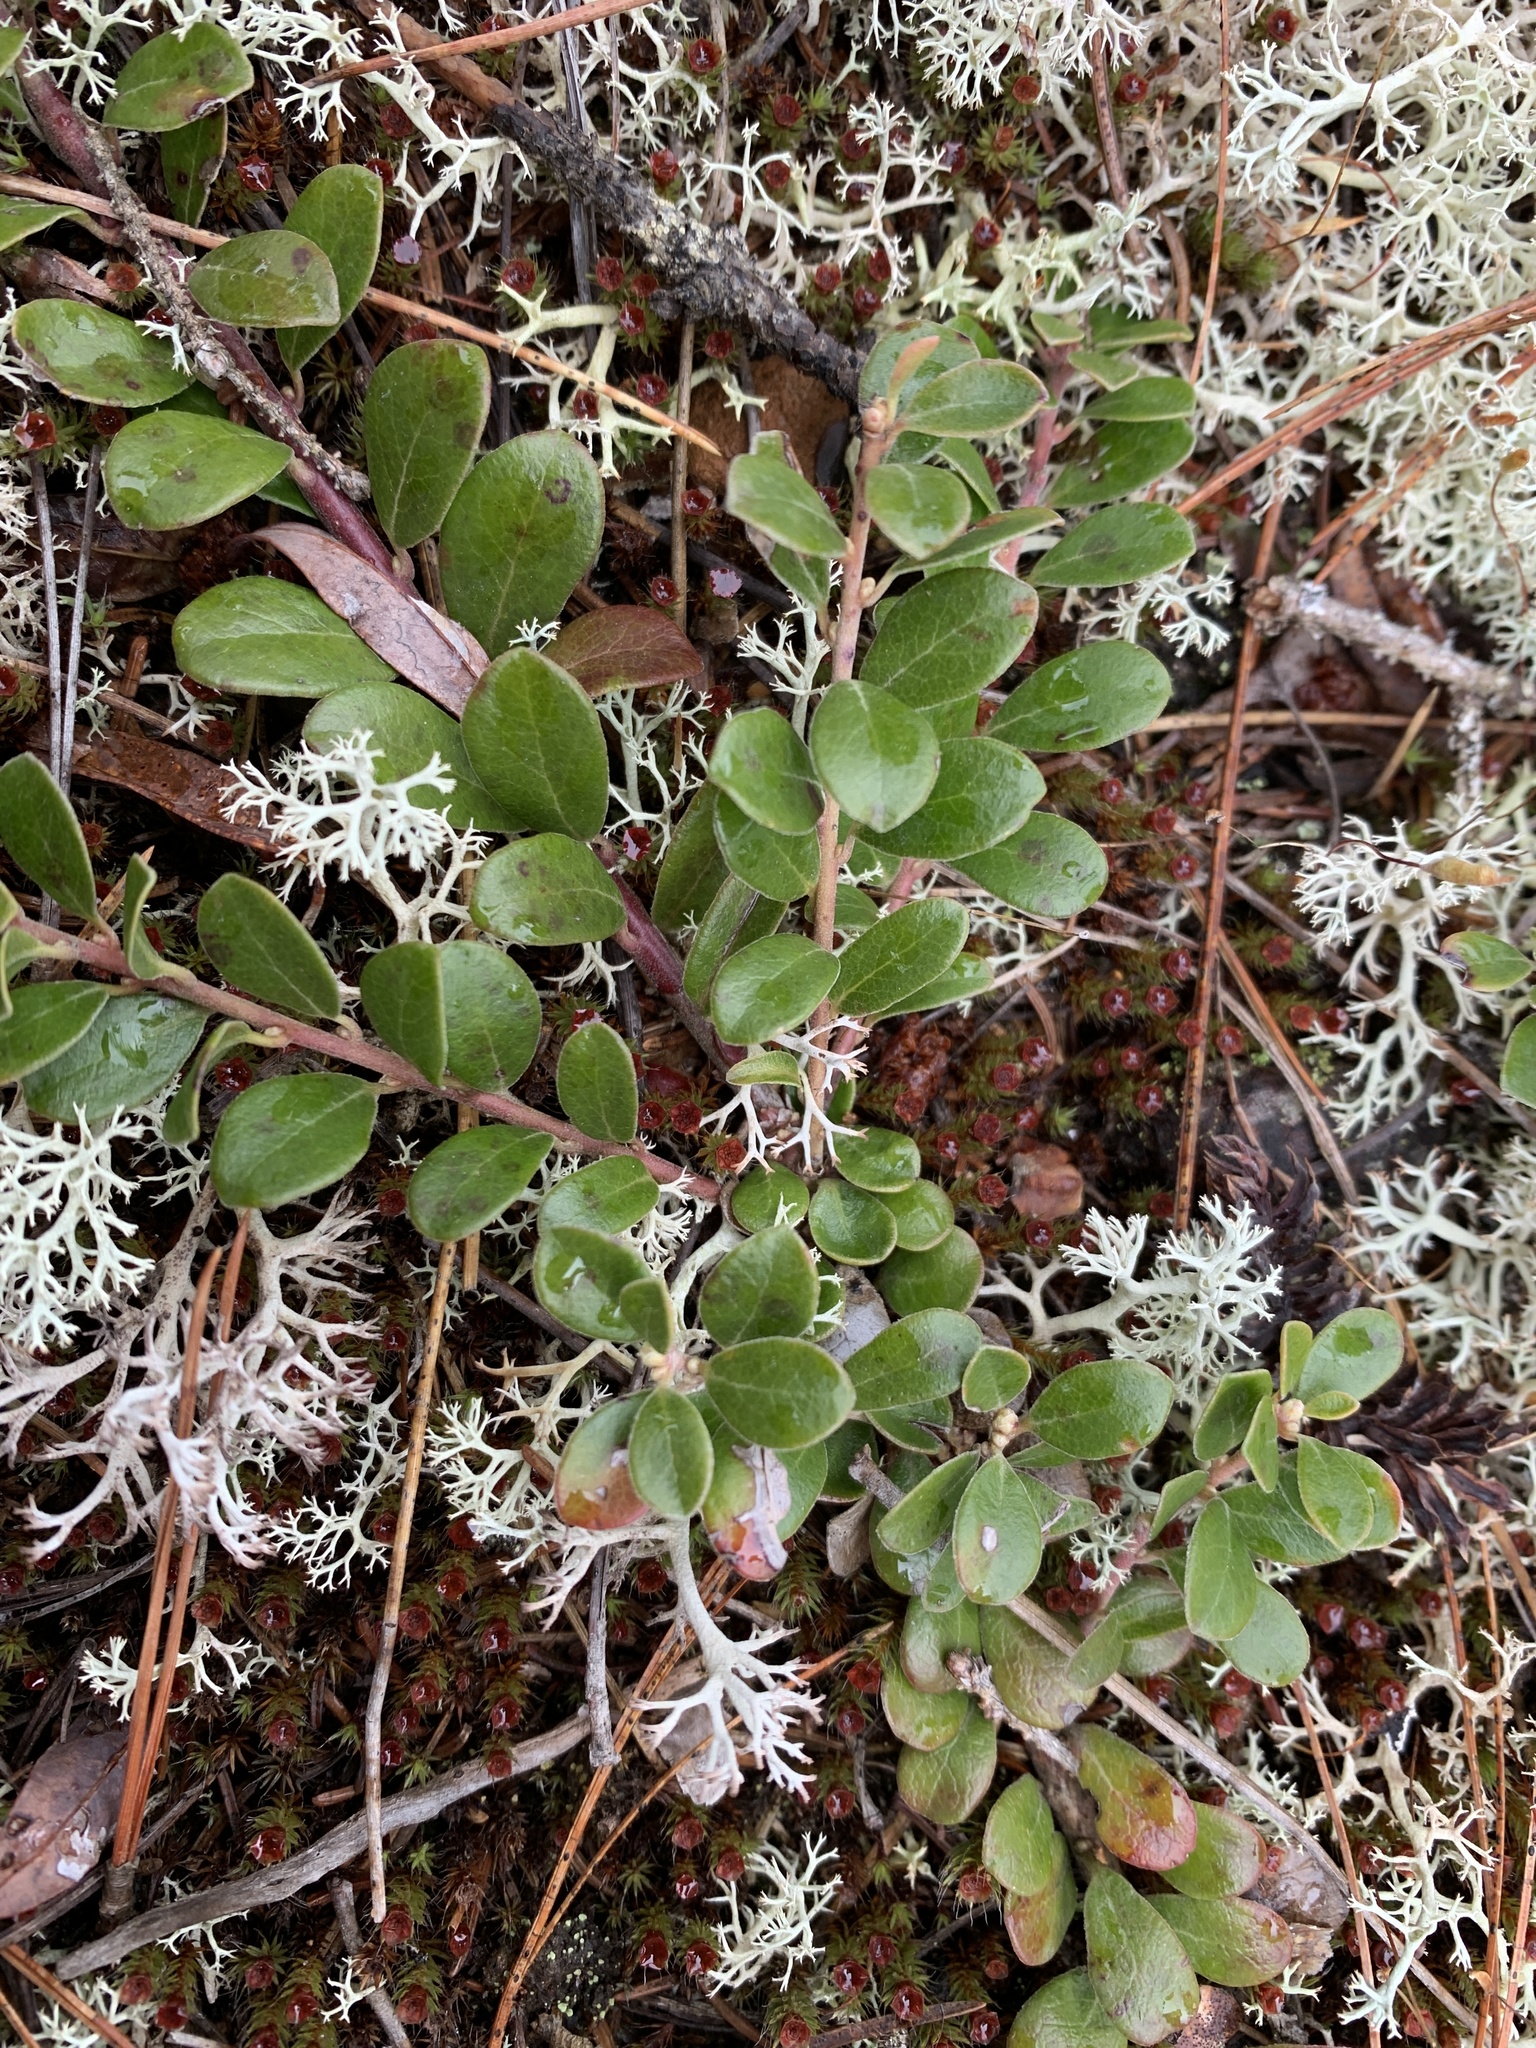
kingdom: Plantae
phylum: Tracheophyta
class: Magnoliopsida
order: Ericales
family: Ericaceae
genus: Arctostaphylos
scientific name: Arctostaphylos uva-ursi
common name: Bearberry
